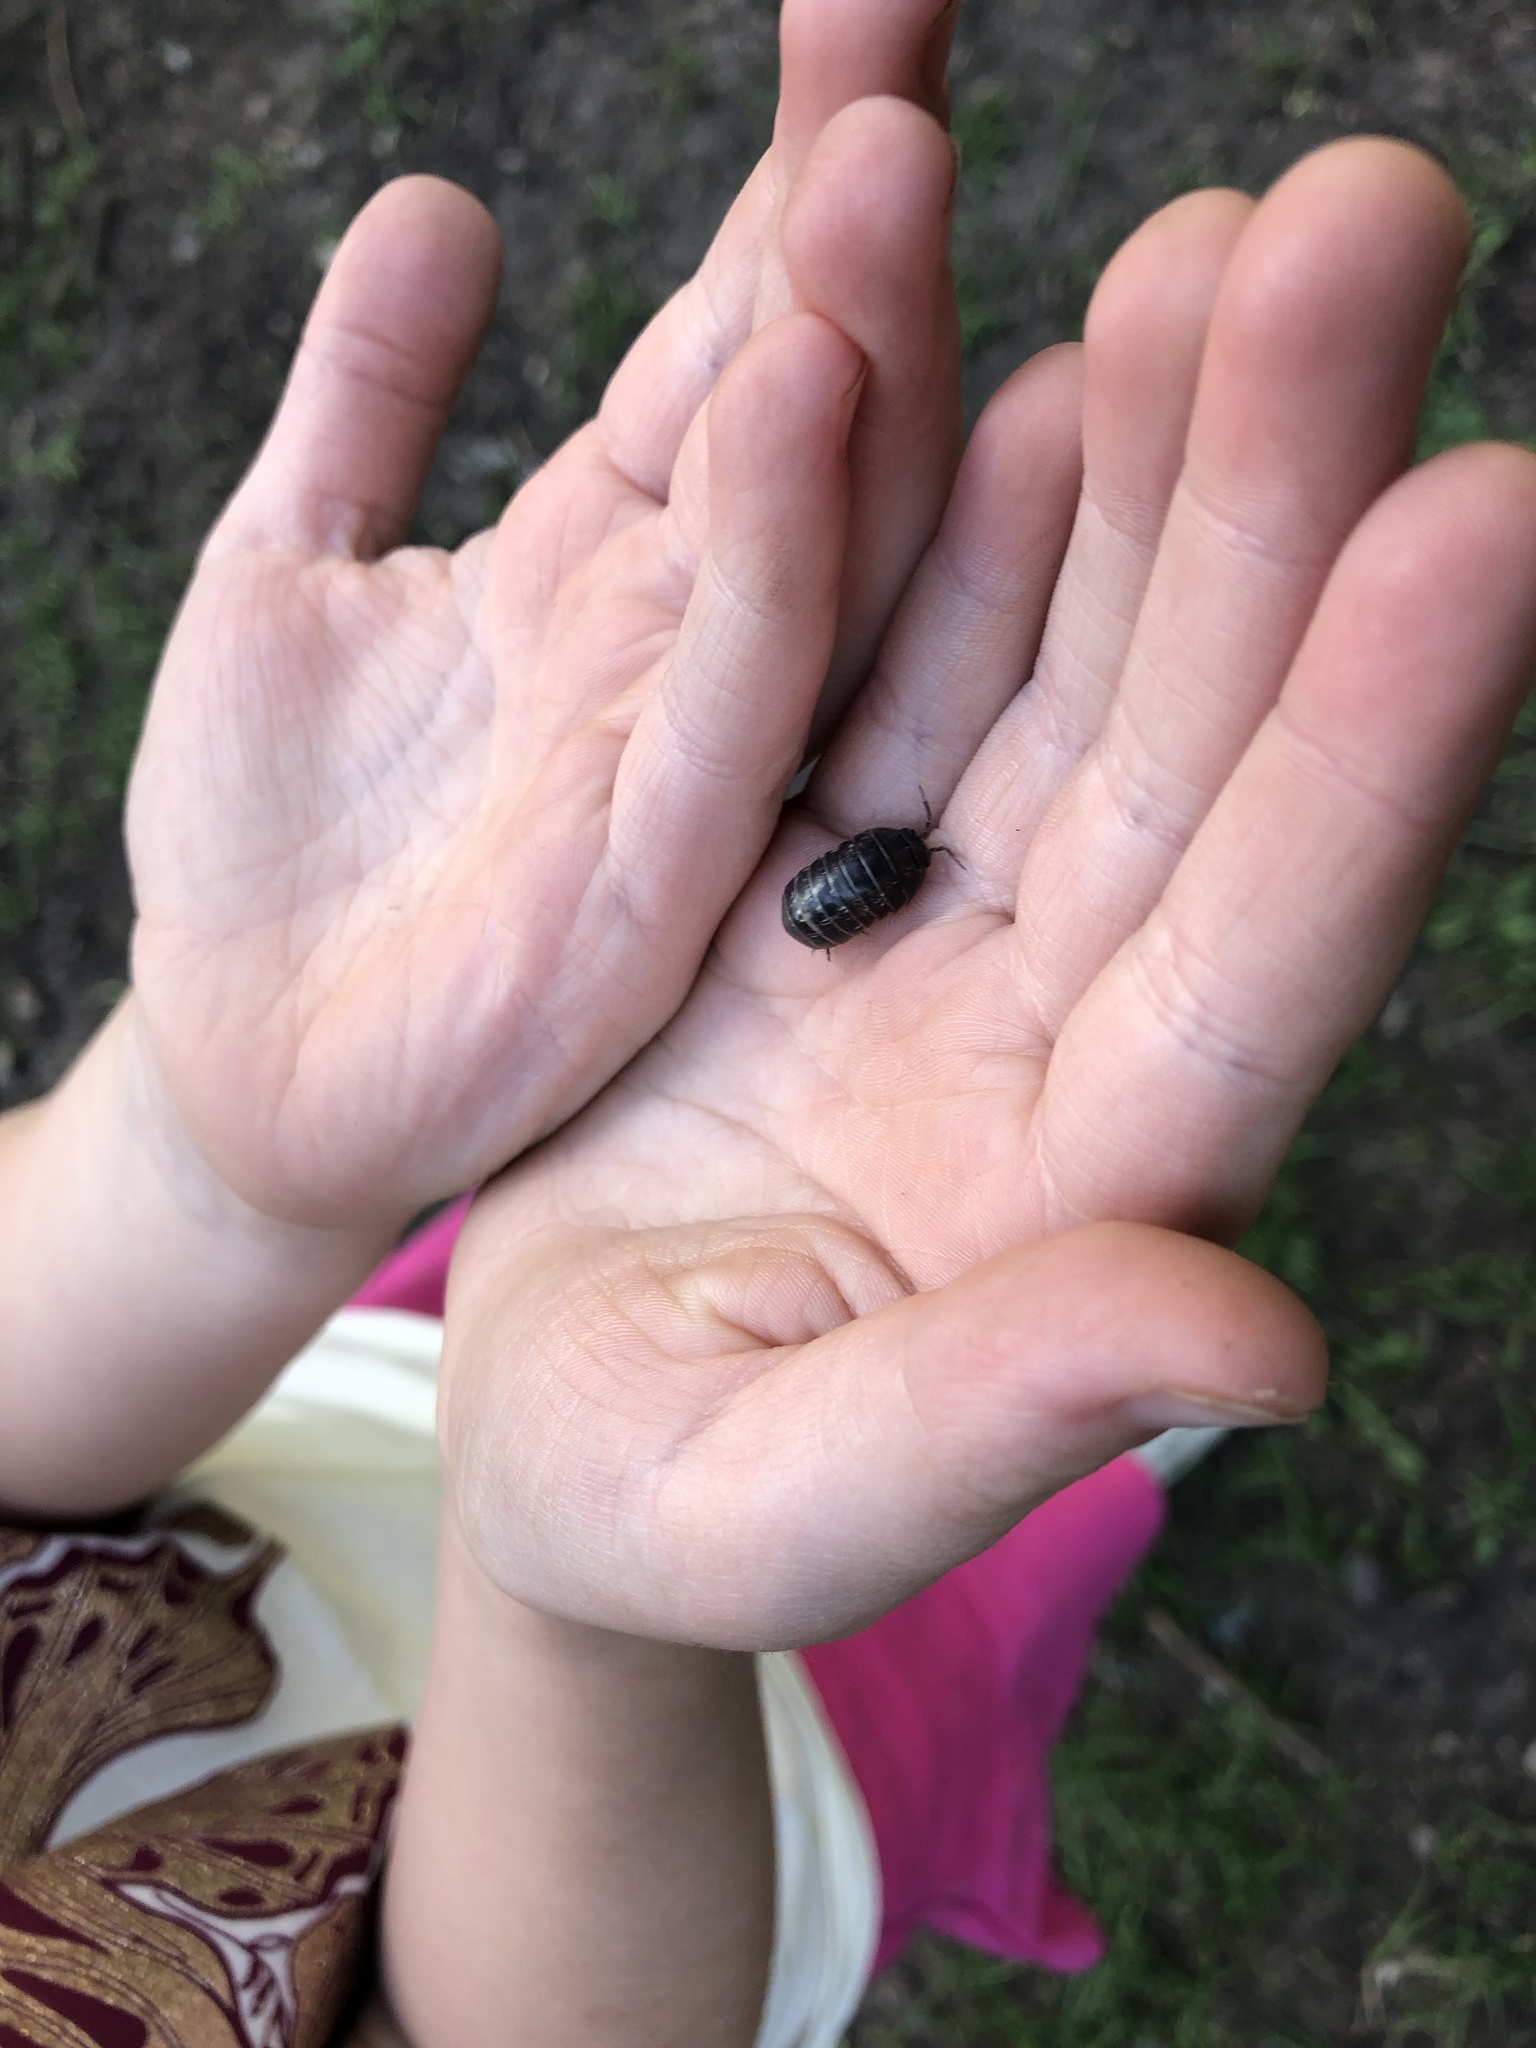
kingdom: Animalia
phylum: Arthropoda
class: Malacostraca
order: Isopoda
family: Armadillidiidae
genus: Armadillidium
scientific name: Armadillidium vulgare
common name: Common pill woodlouse
